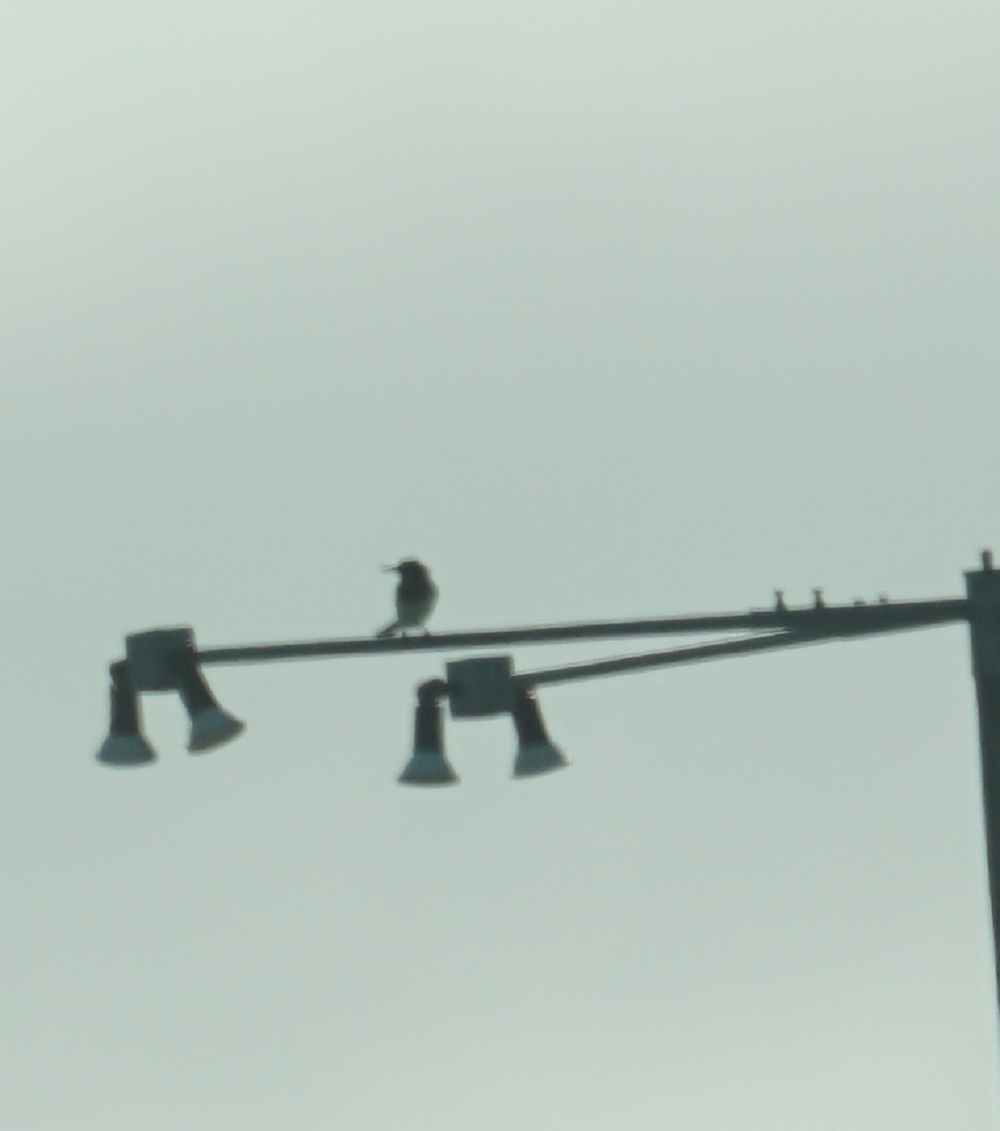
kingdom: Animalia
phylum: Chordata
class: Aves
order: Passeriformes
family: Cracticidae
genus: Cracticus
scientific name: Cracticus nigrogularis
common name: Pied butcherbird
